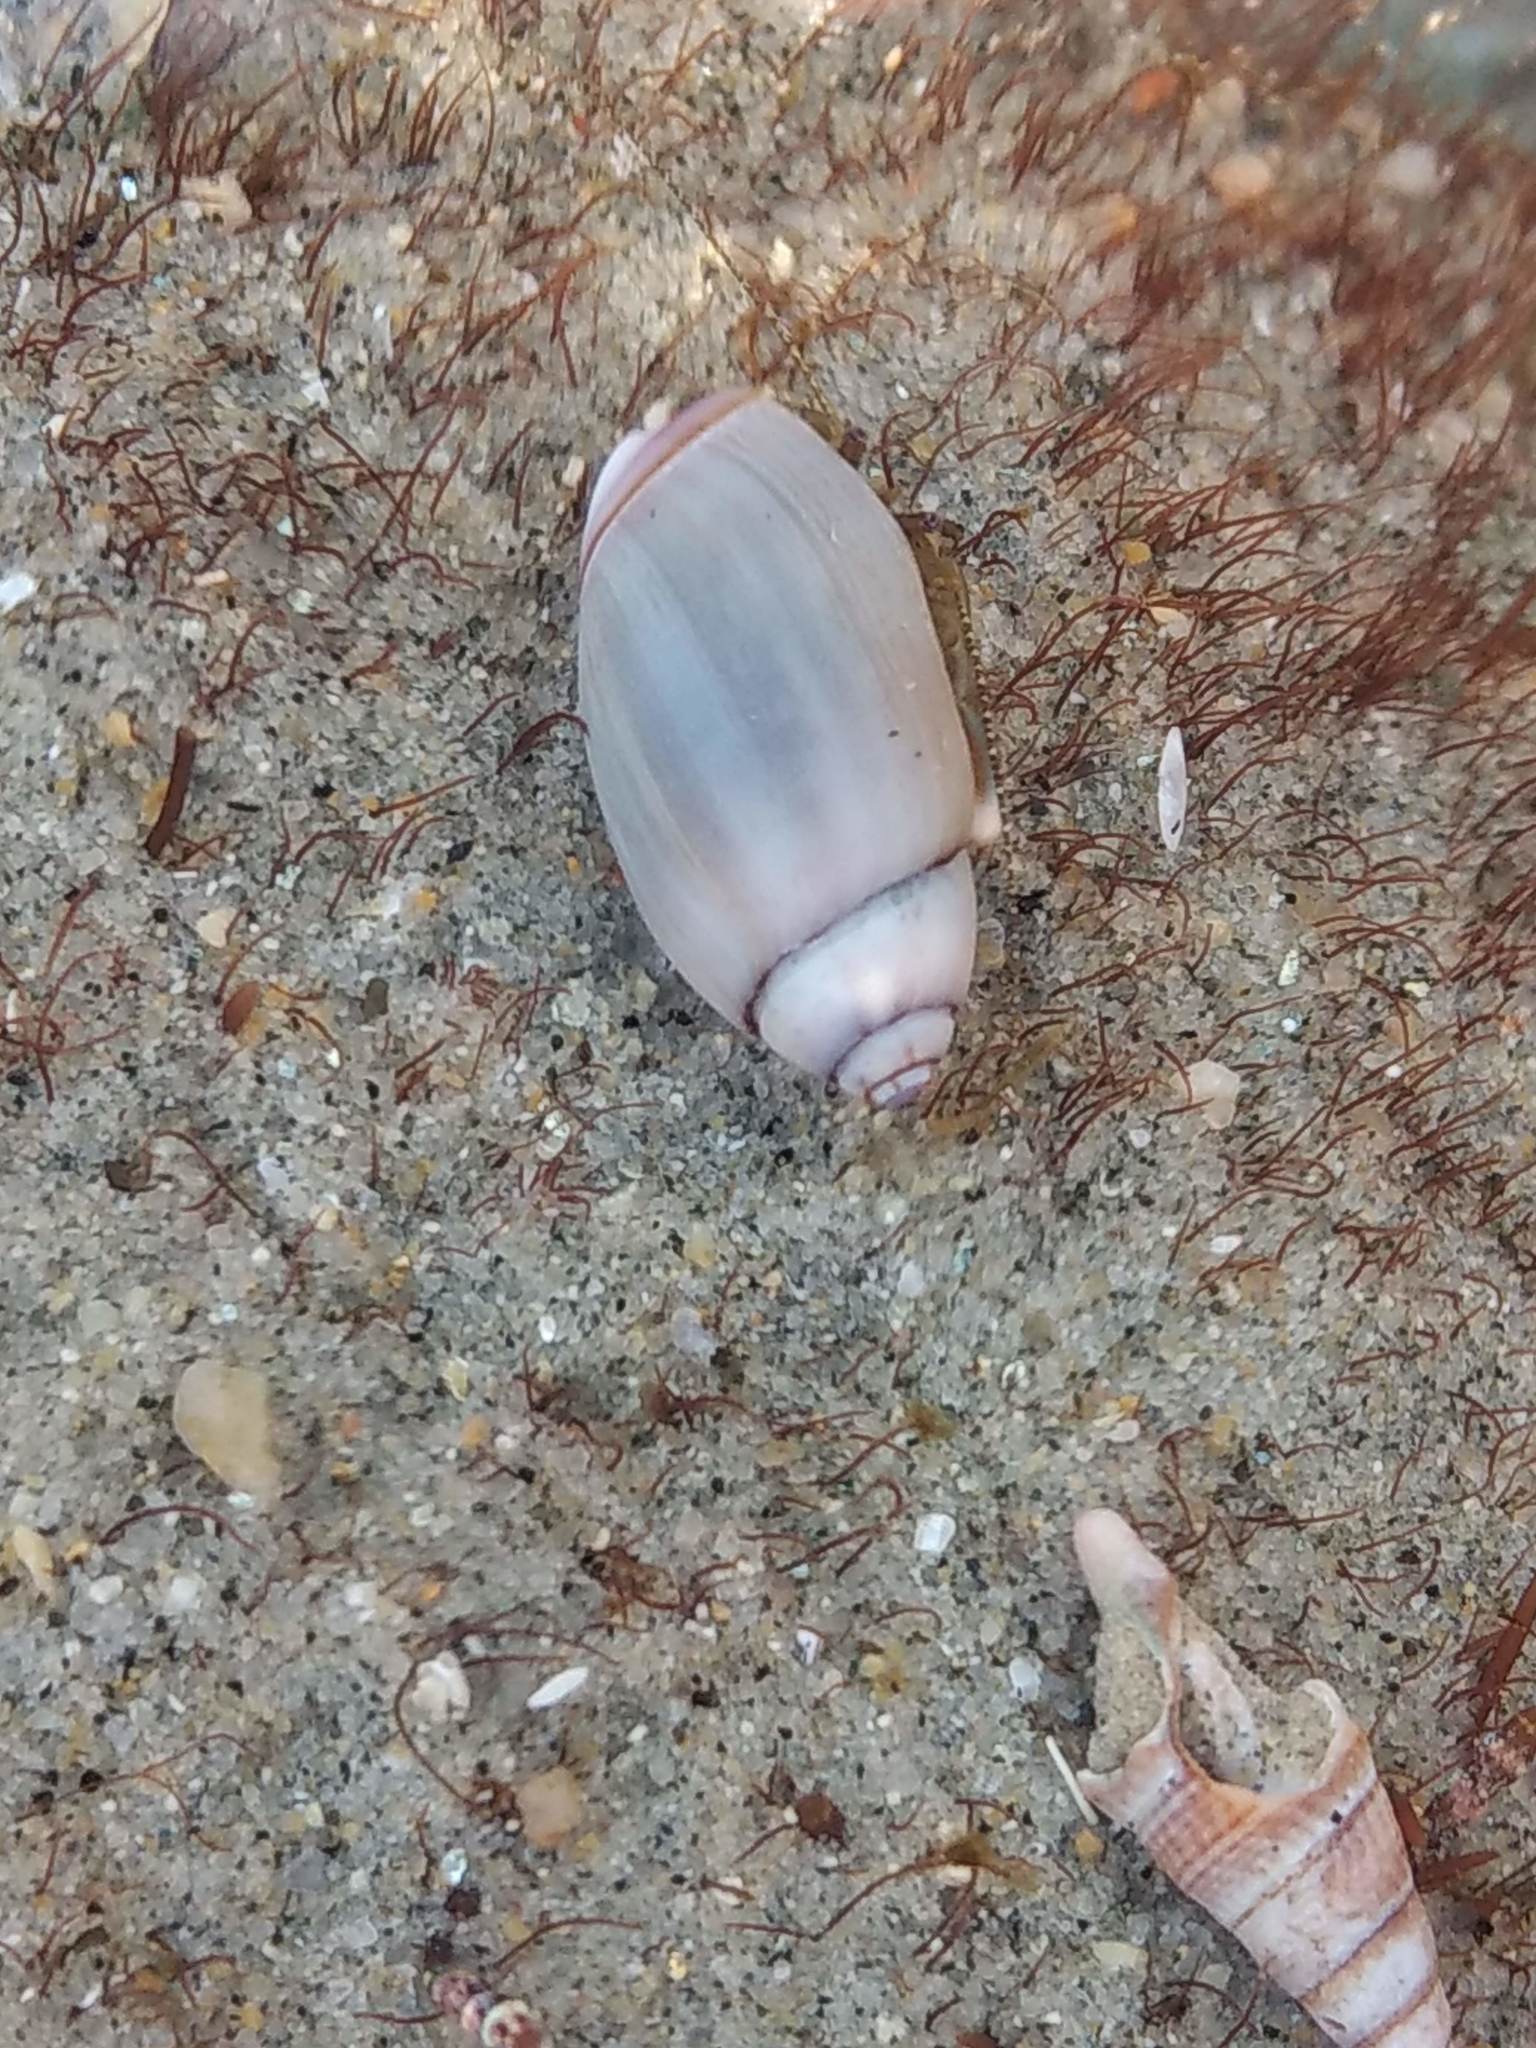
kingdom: Animalia
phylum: Mollusca
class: Gastropoda
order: Neogastropoda
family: Olividae
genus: Callianax
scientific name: Callianax biplicata
